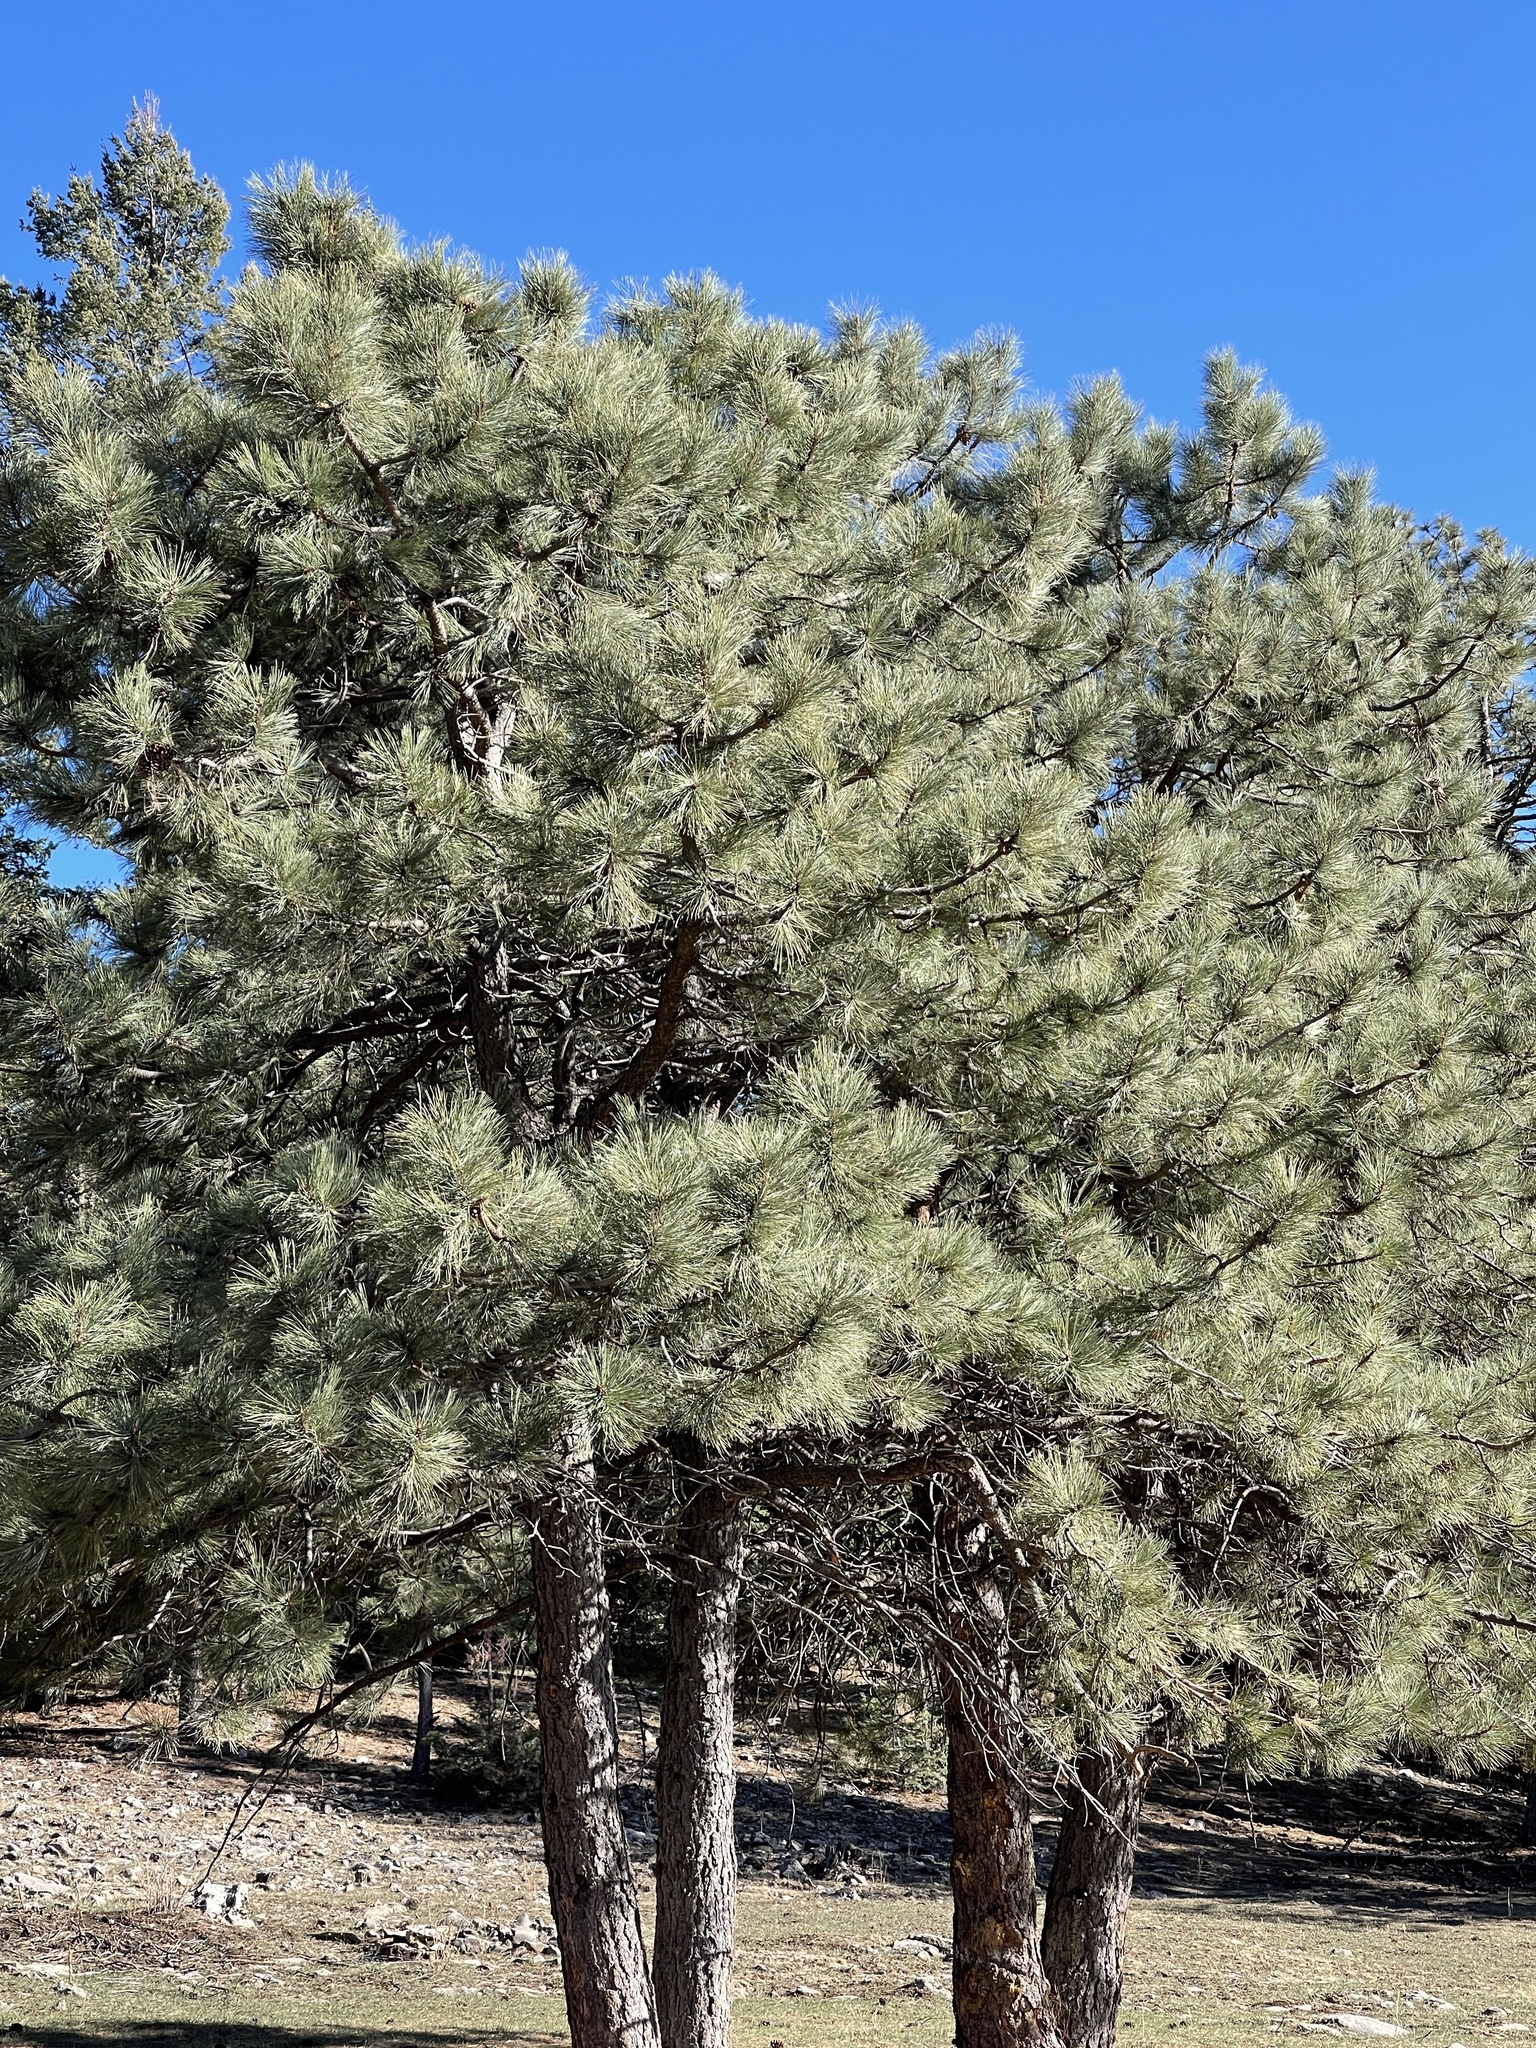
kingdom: Plantae
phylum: Tracheophyta
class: Pinopsida
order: Pinales
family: Pinaceae
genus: Pinus
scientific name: Pinus ponderosa
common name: Western yellow-pine
